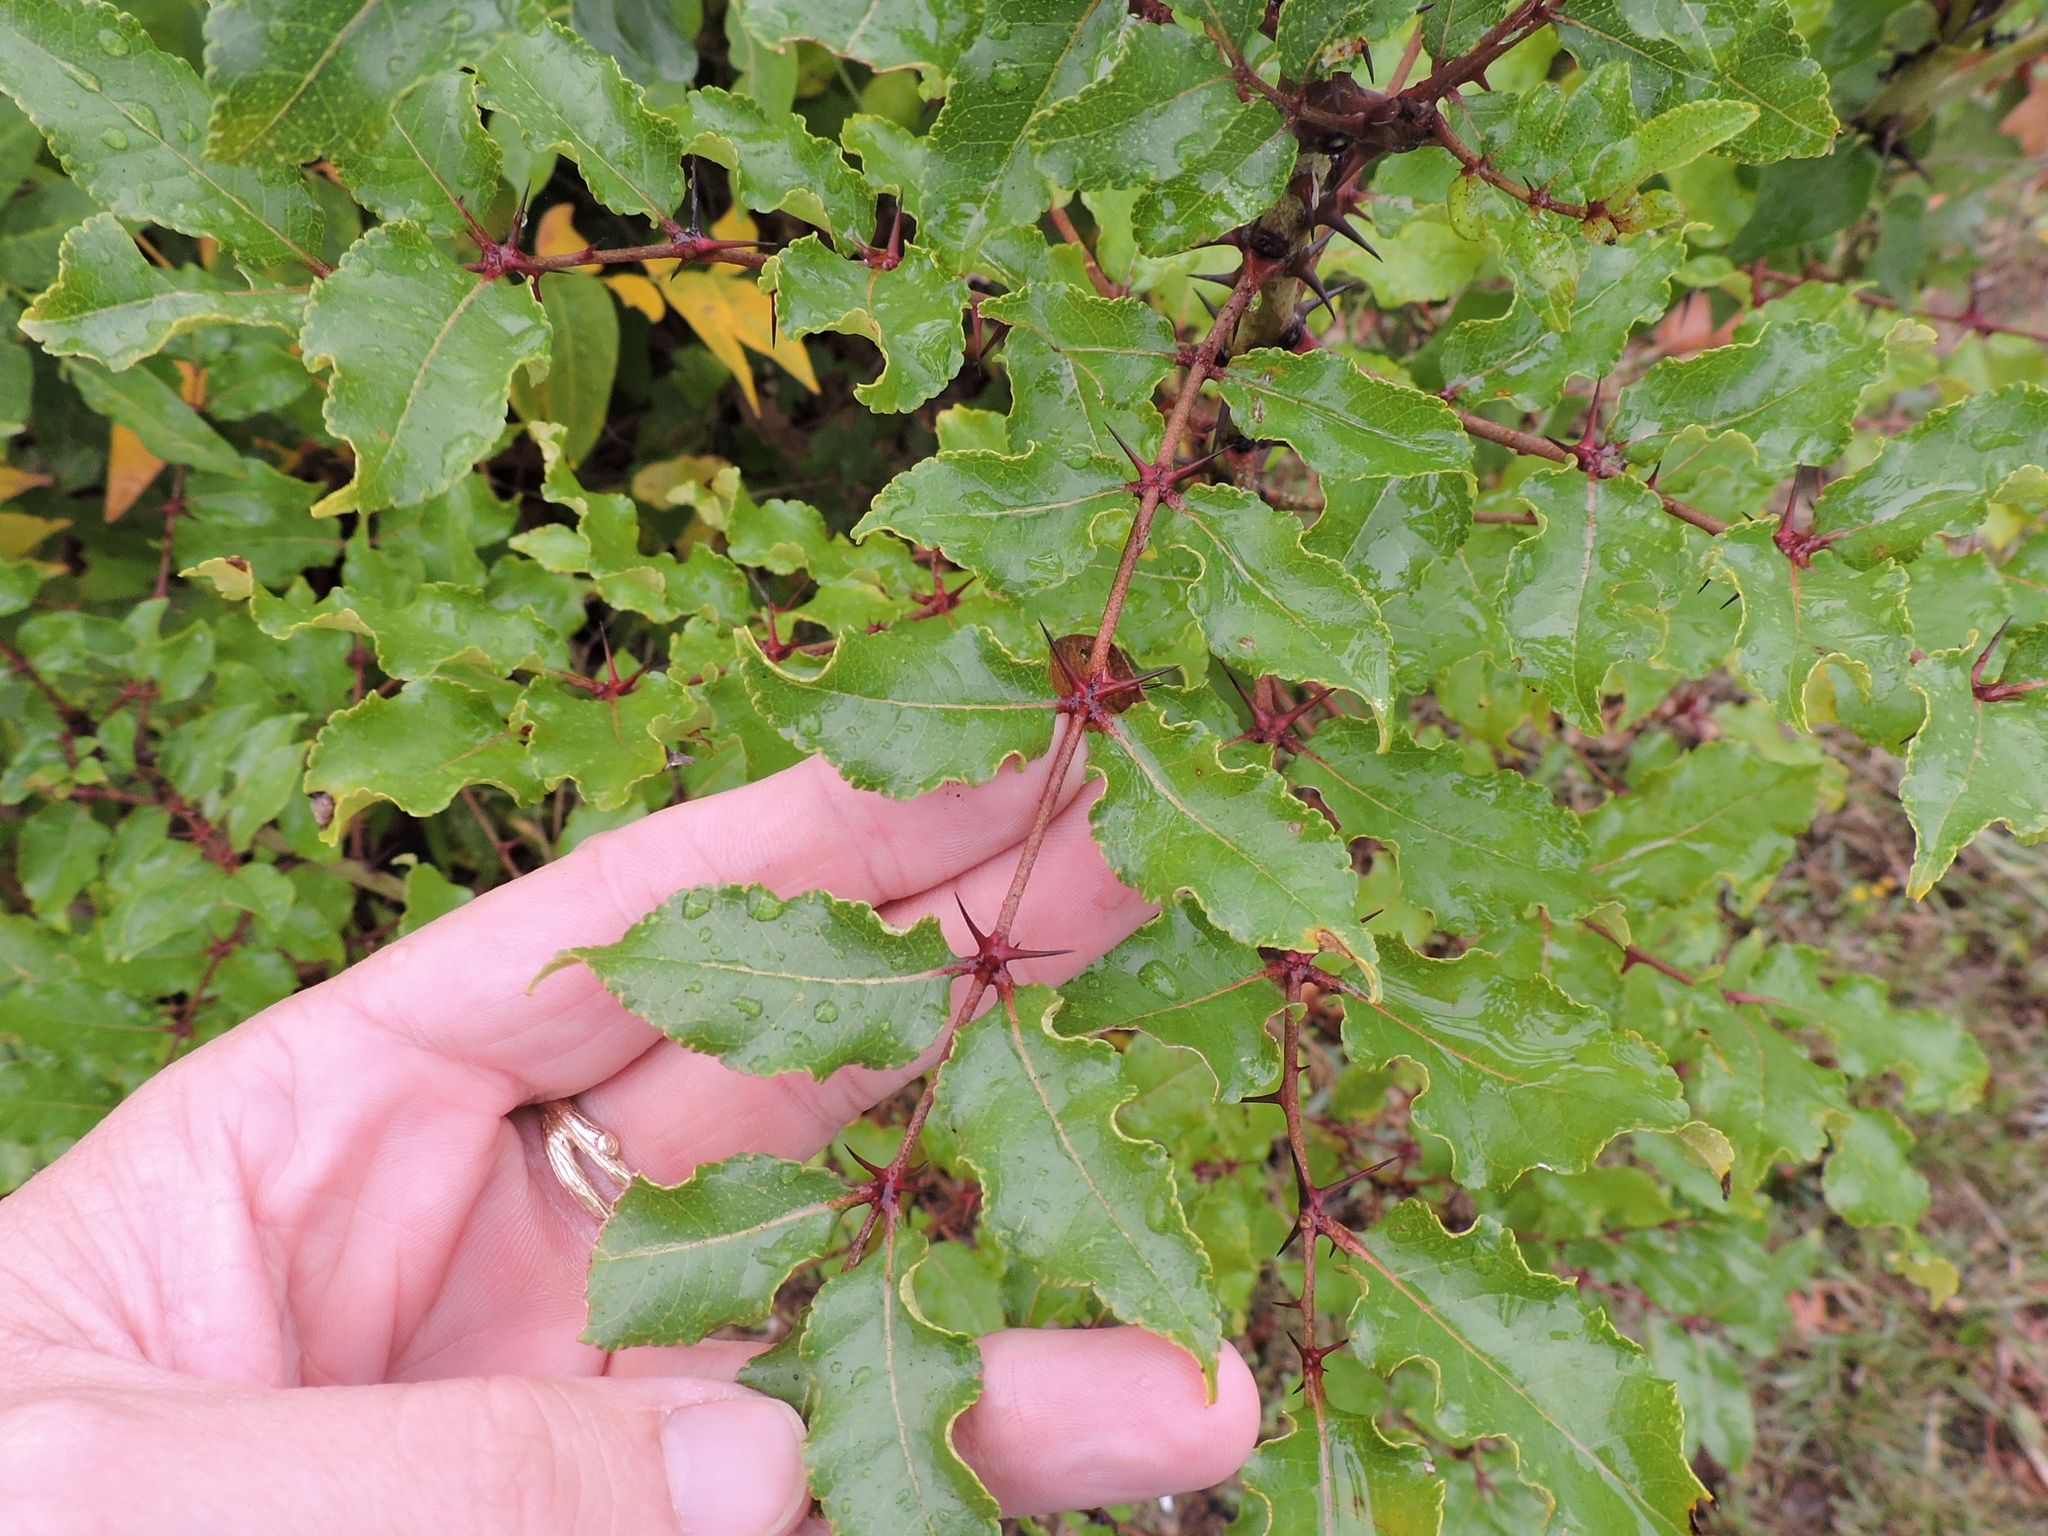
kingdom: Plantae
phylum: Tracheophyta
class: Magnoliopsida
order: Sapindales
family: Rutaceae
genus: Zanthoxylum
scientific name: Zanthoxylum clava-herculis
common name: Hercules'-club
